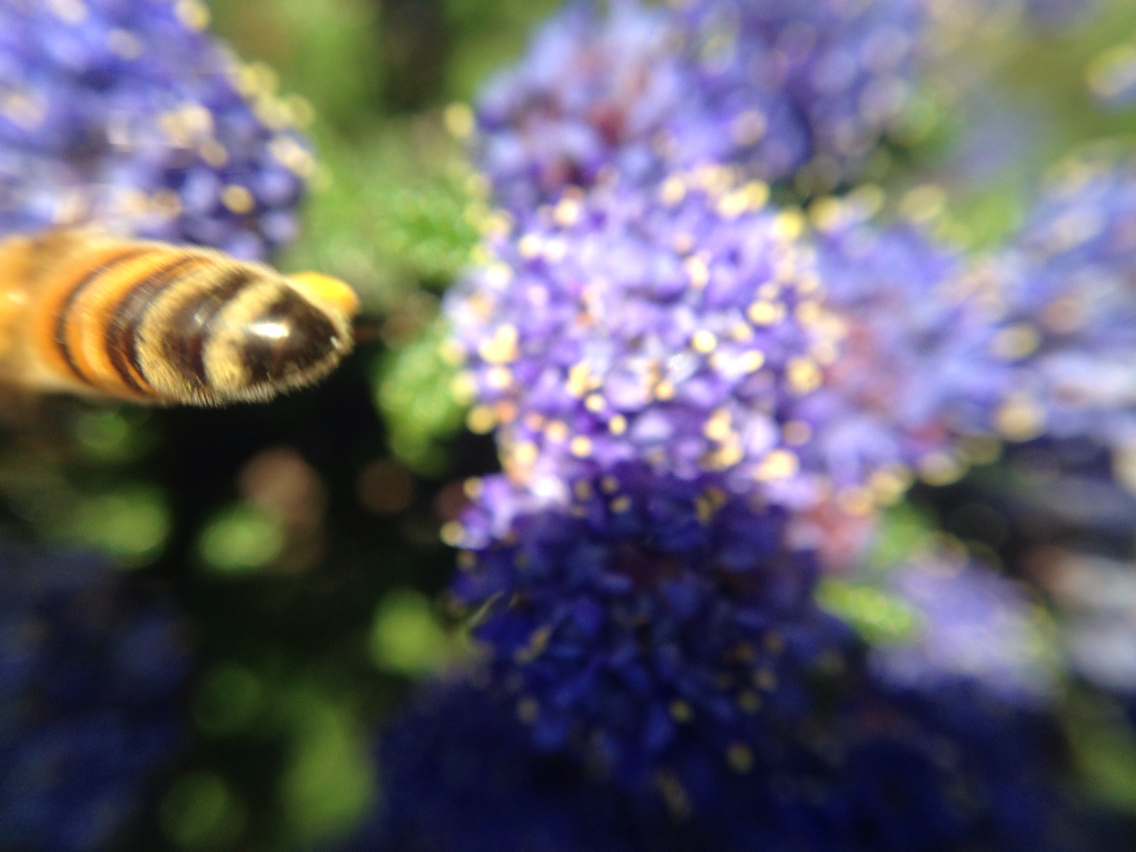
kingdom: Animalia
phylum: Arthropoda
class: Insecta
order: Hymenoptera
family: Apidae
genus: Apis
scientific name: Apis mellifera
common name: Honey bee
